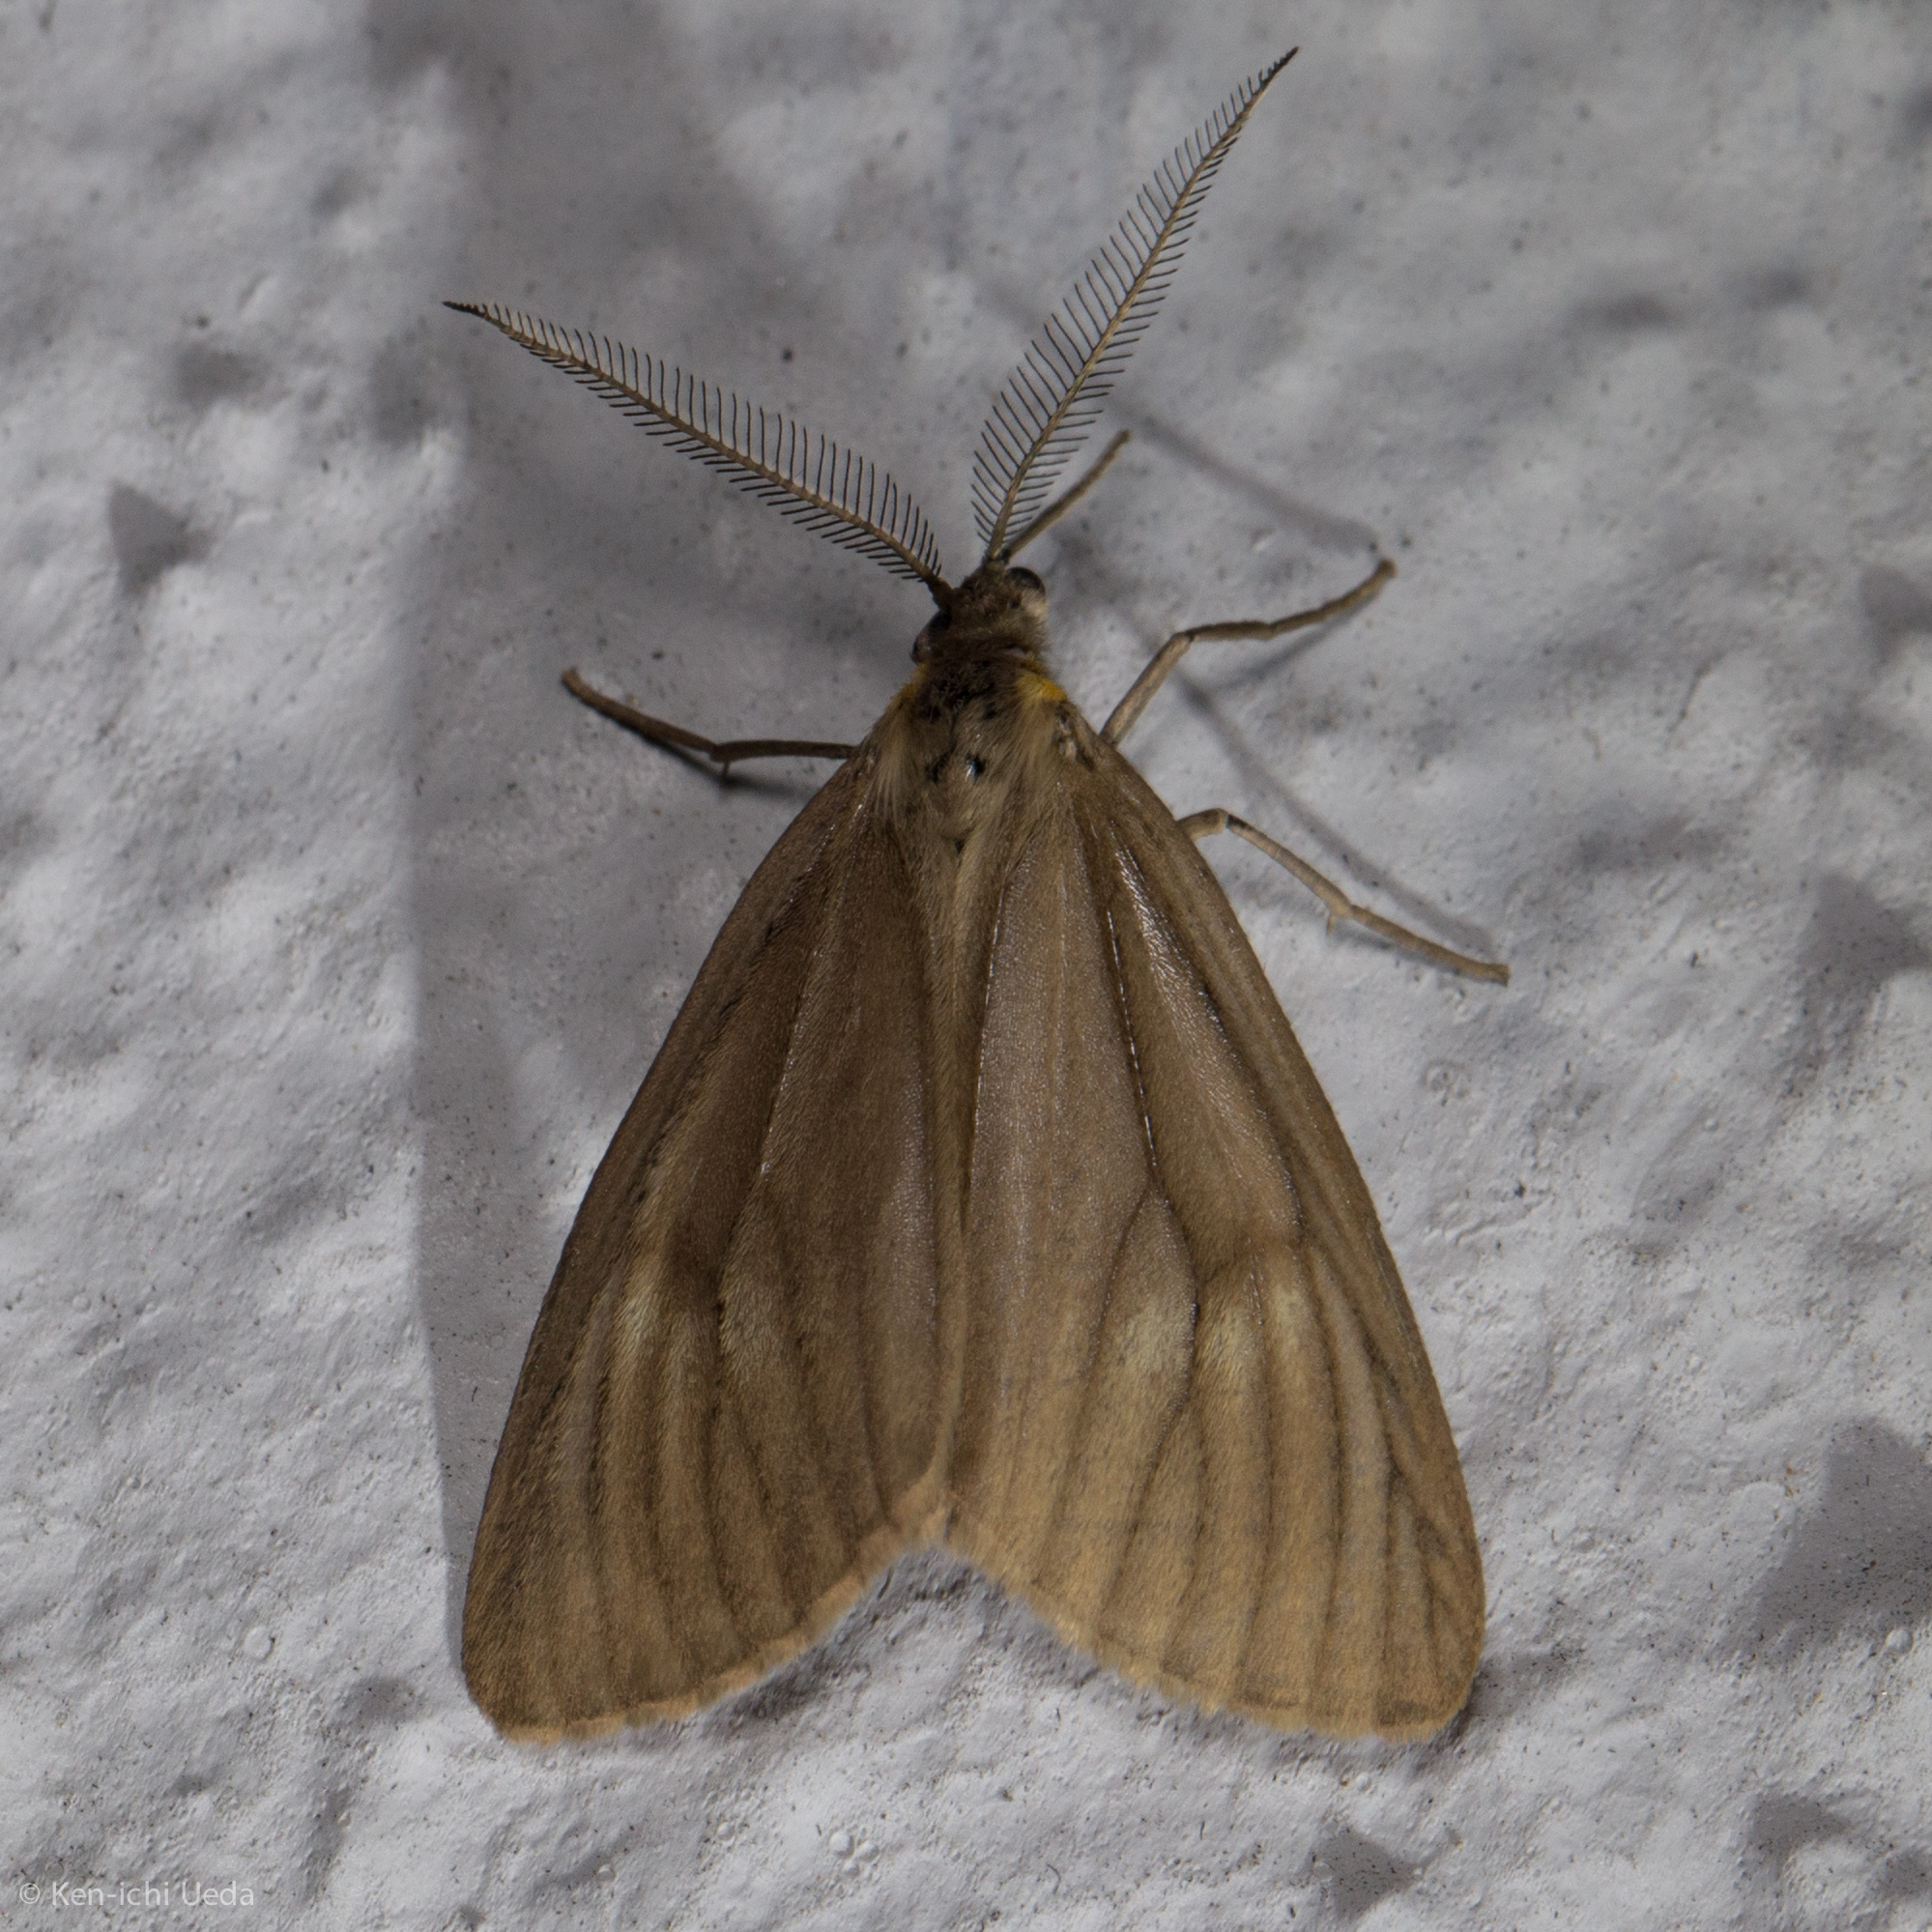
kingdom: Animalia
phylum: Arthropoda
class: Insecta
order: Lepidoptera
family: Notodontidae
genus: Phryganidia
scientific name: Phryganidia californica
